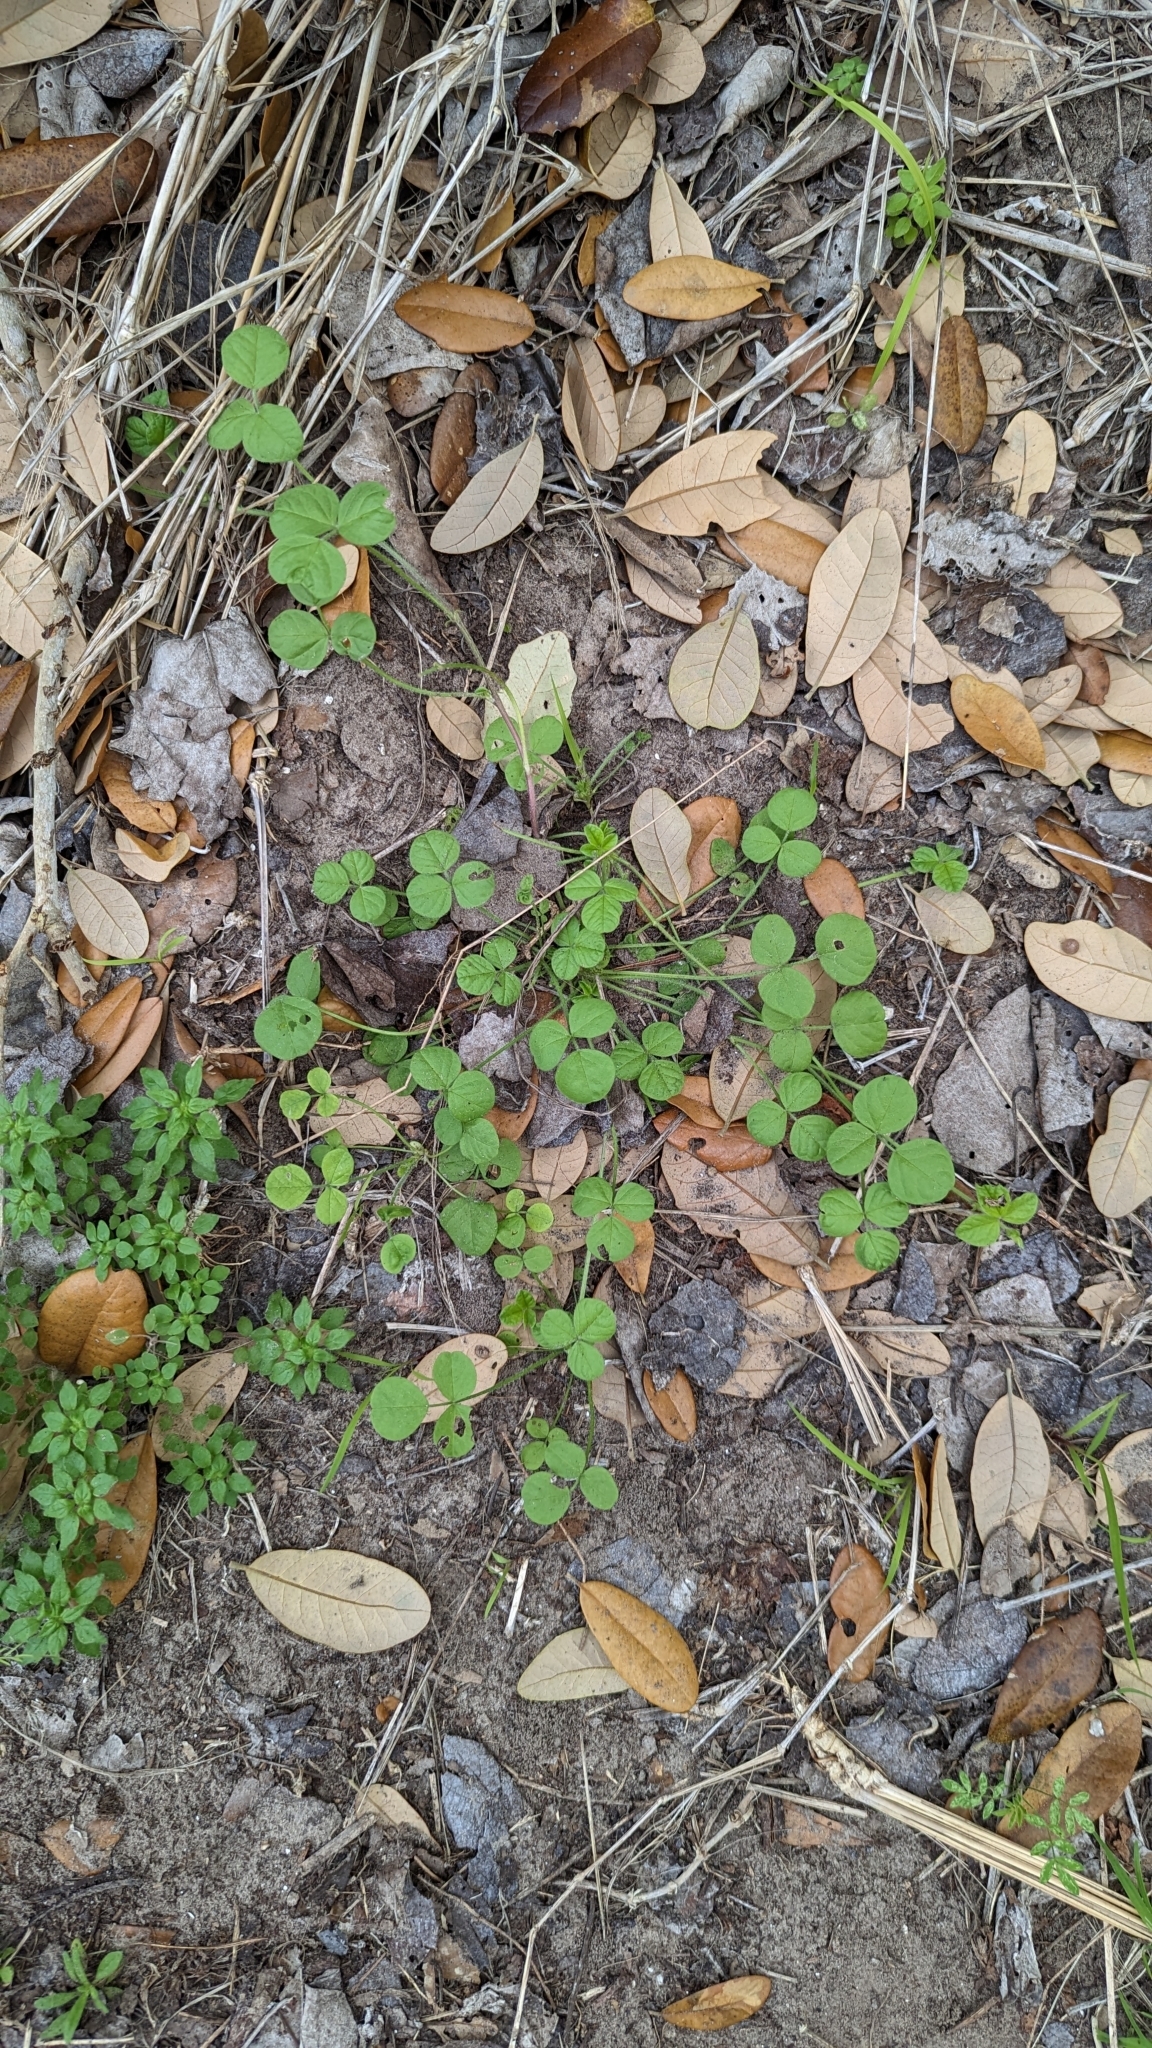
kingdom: Plantae
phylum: Tracheophyta
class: Magnoliopsida
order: Fabales
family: Fabaceae
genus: Pediomelum
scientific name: Pediomelum rhombifolium
